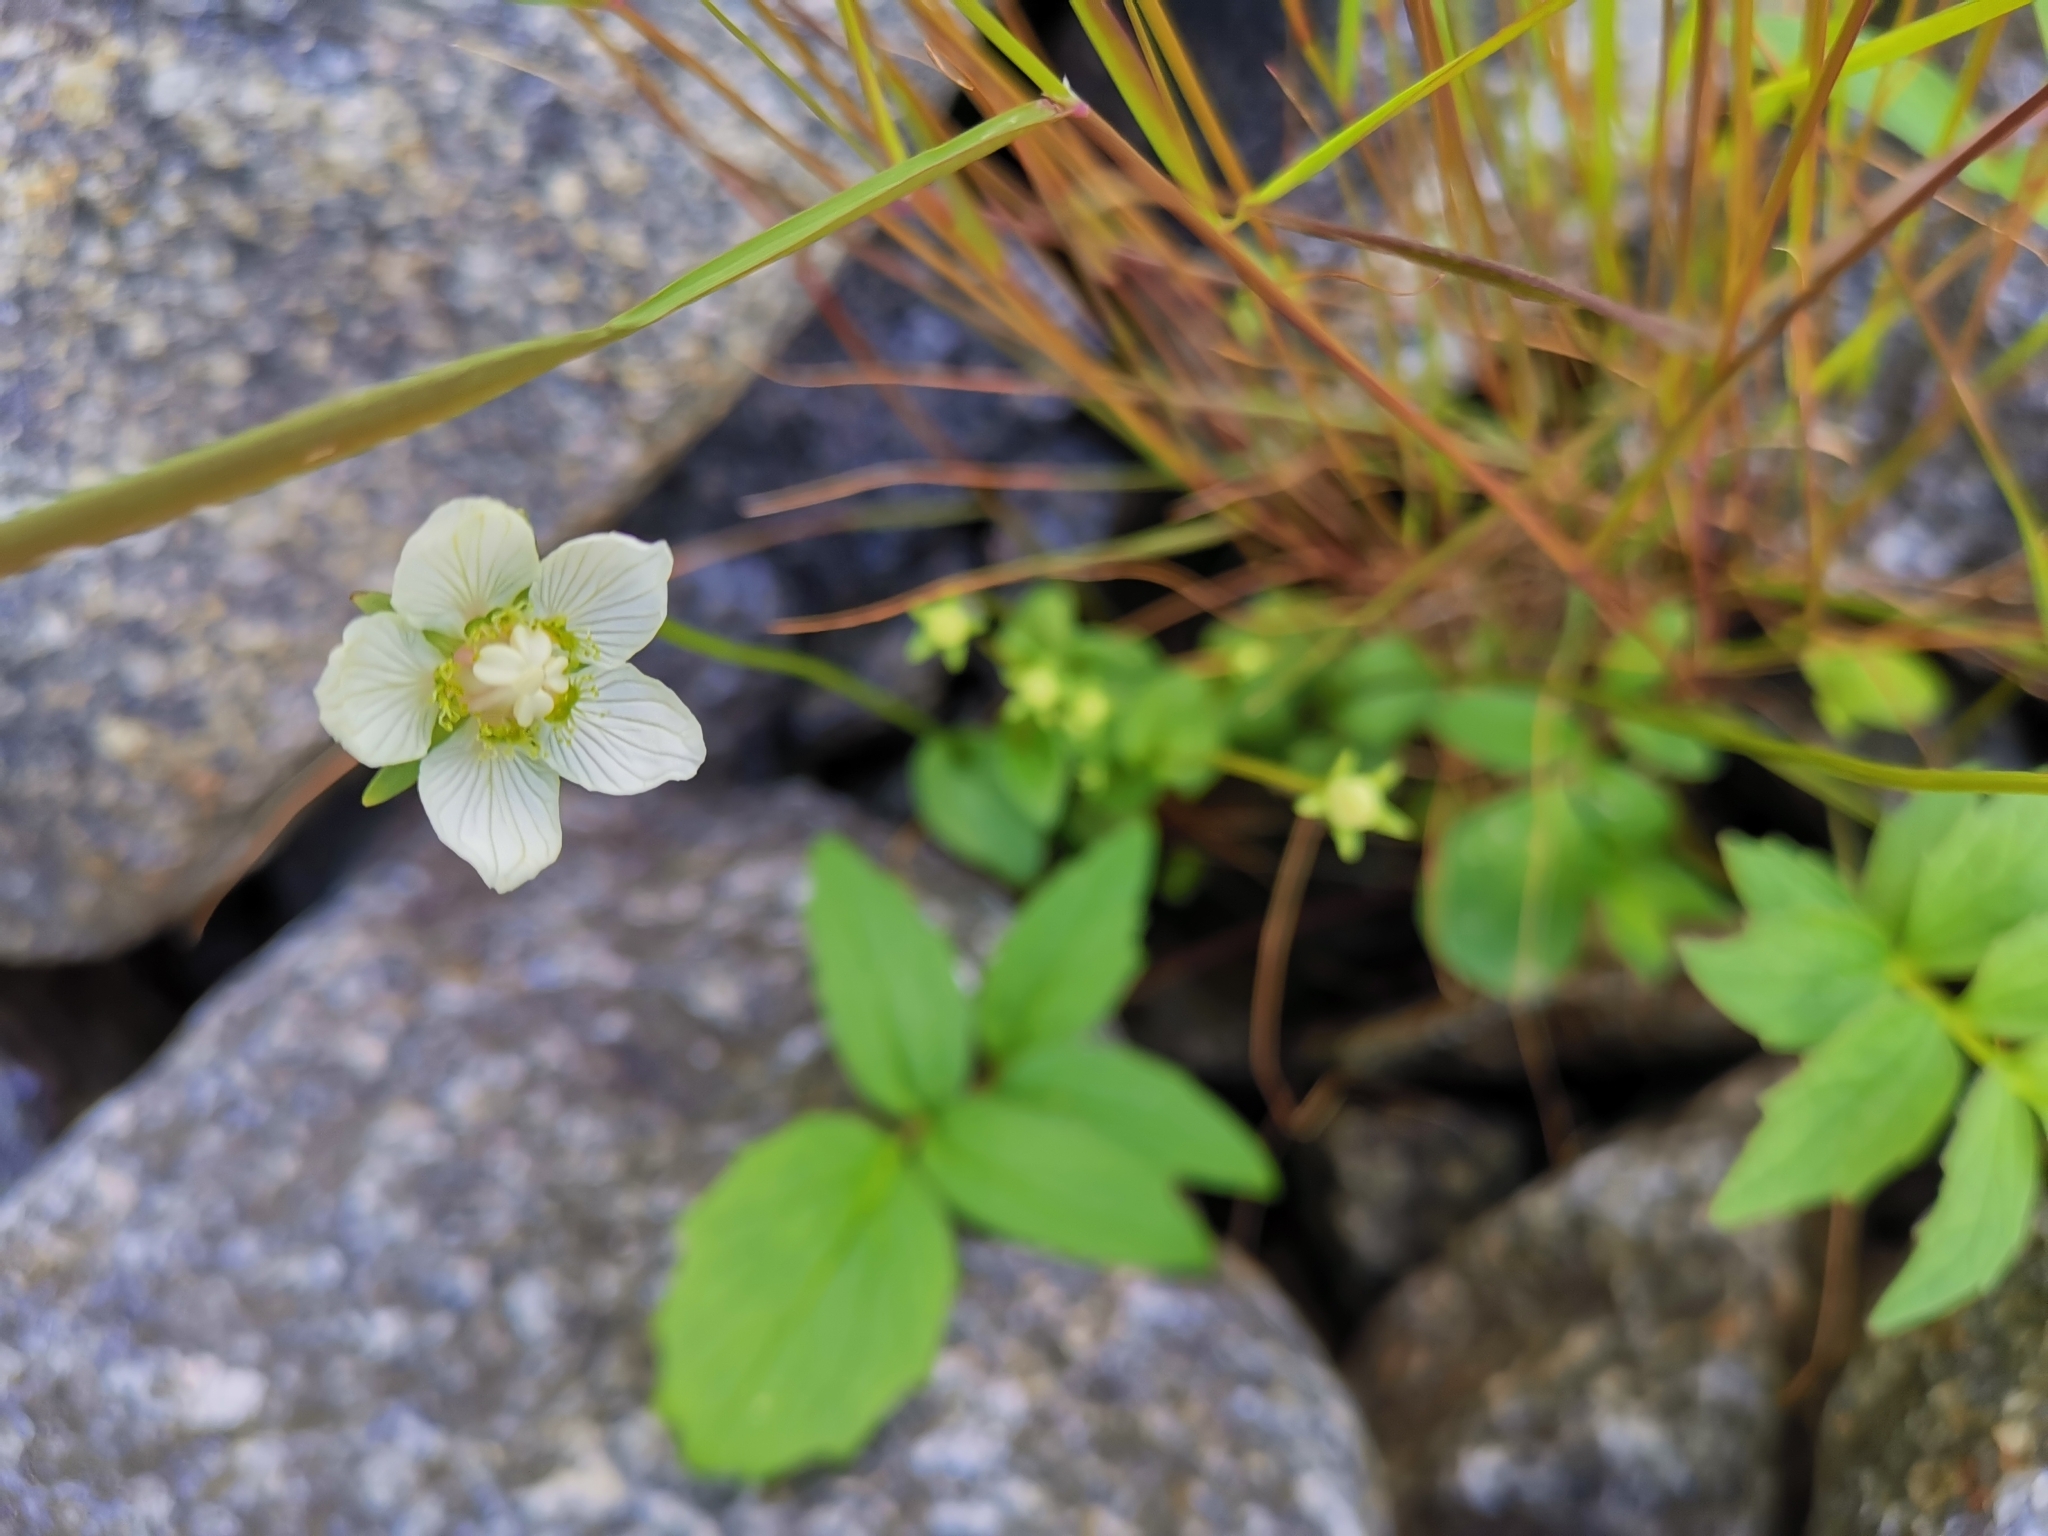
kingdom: Plantae
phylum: Tracheophyta
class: Magnoliopsida
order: Celastrales
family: Parnassiaceae
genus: Parnassia
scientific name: Parnassia palustris
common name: Grass-of-parnassus
